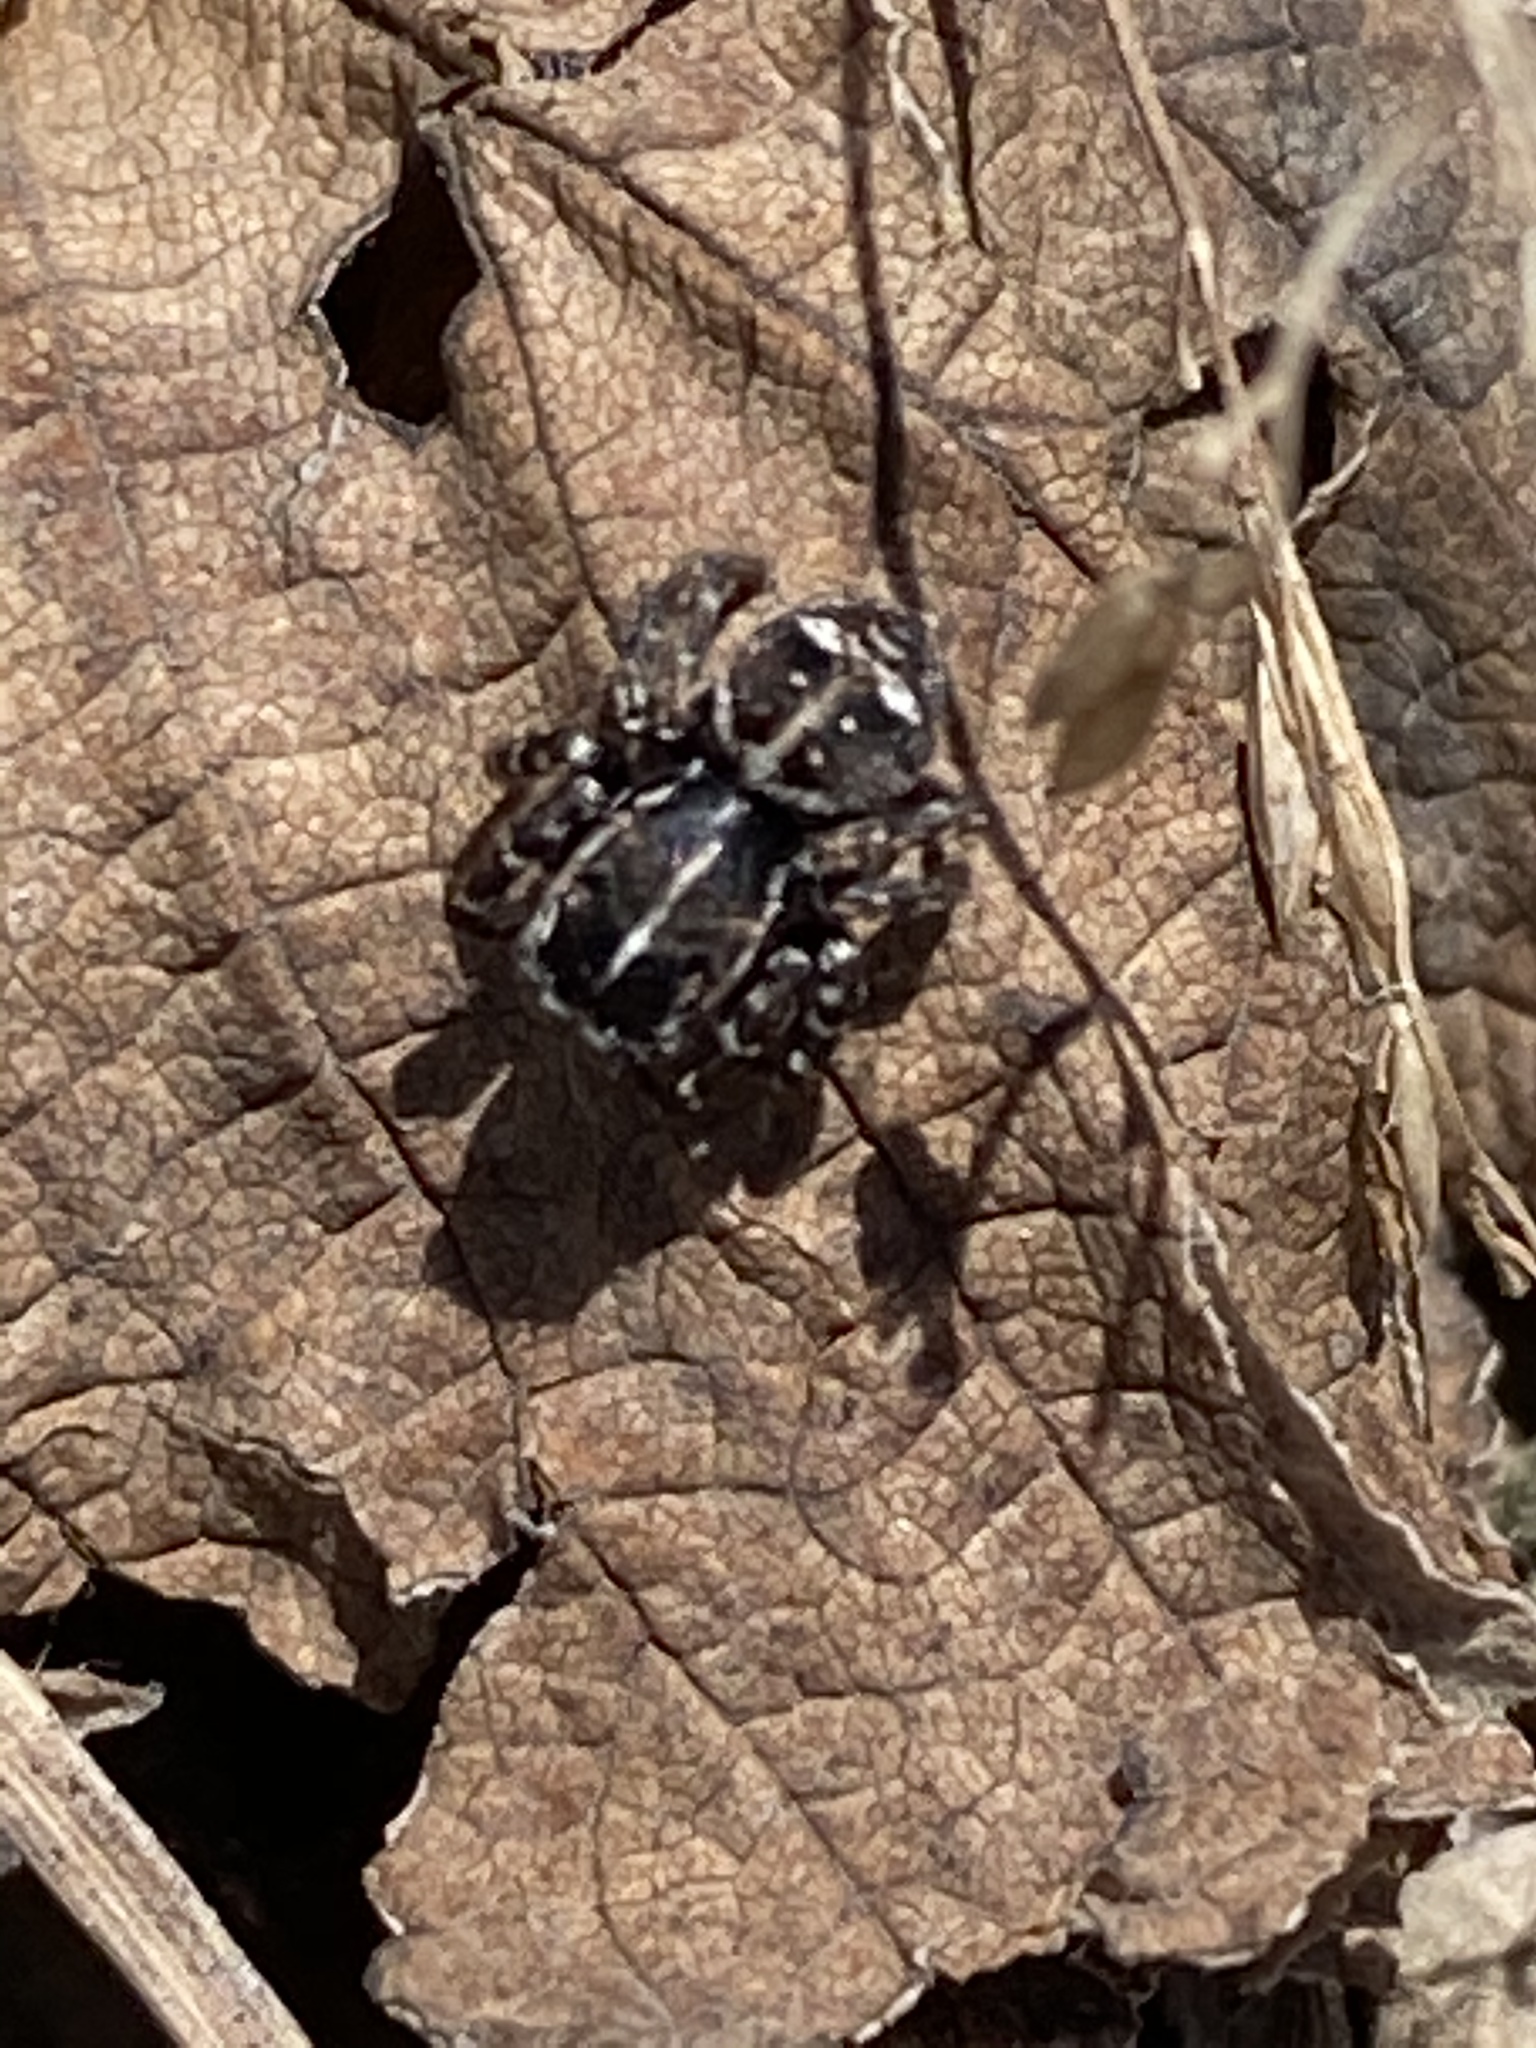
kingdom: Animalia
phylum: Arthropoda
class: Arachnida
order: Araneae
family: Salticidae
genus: Attulus
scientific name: Attulus floricola
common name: Flower jumping spider
